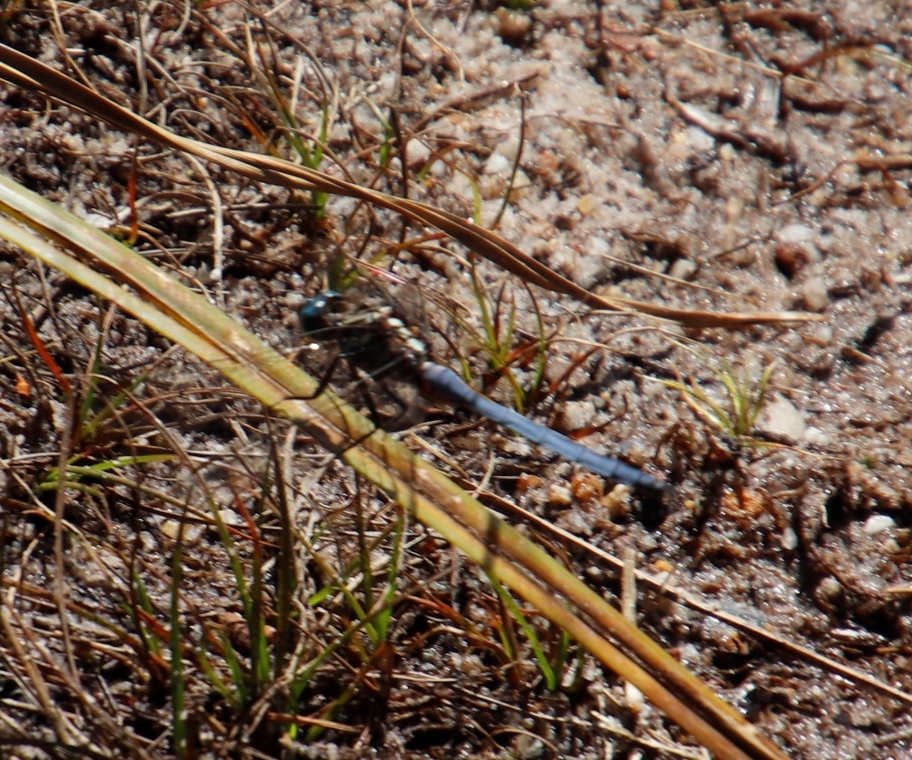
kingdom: Animalia
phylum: Arthropoda
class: Insecta
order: Odonata
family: Libellulidae
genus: Orthetrum
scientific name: Orthetrum julia
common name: Julia skimmer
